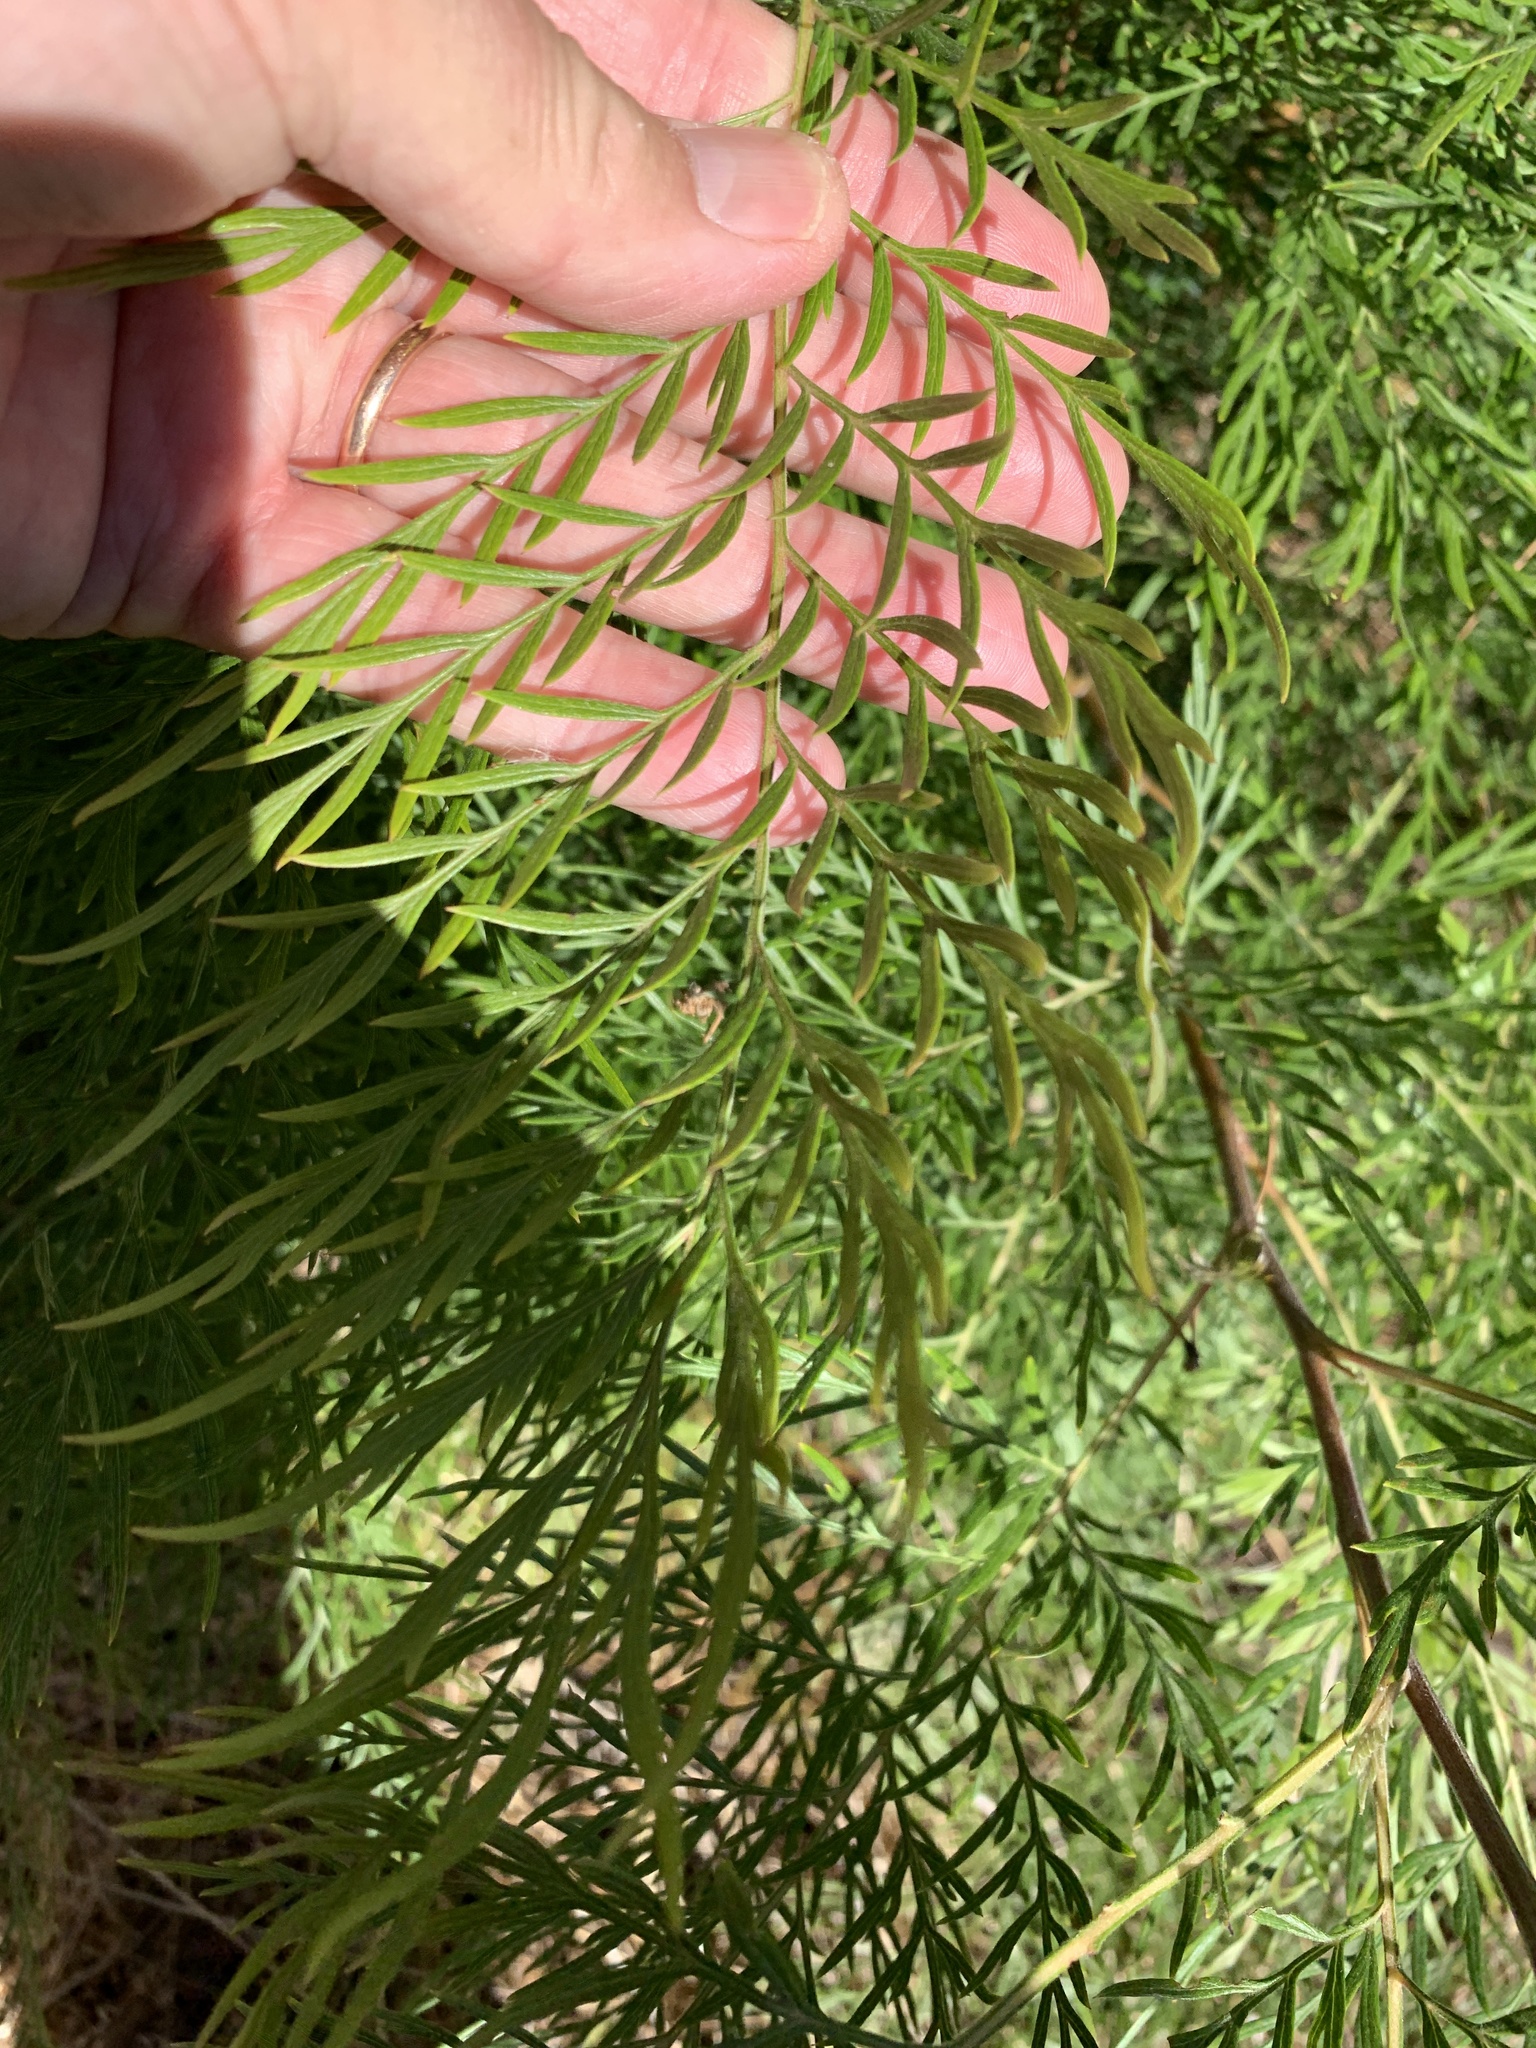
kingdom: Plantae
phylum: Tracheophyta
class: Magnoliopsida
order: Proteales
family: Proteaceae
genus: Grevillea
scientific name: Grevillea robusta
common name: Silkoak
